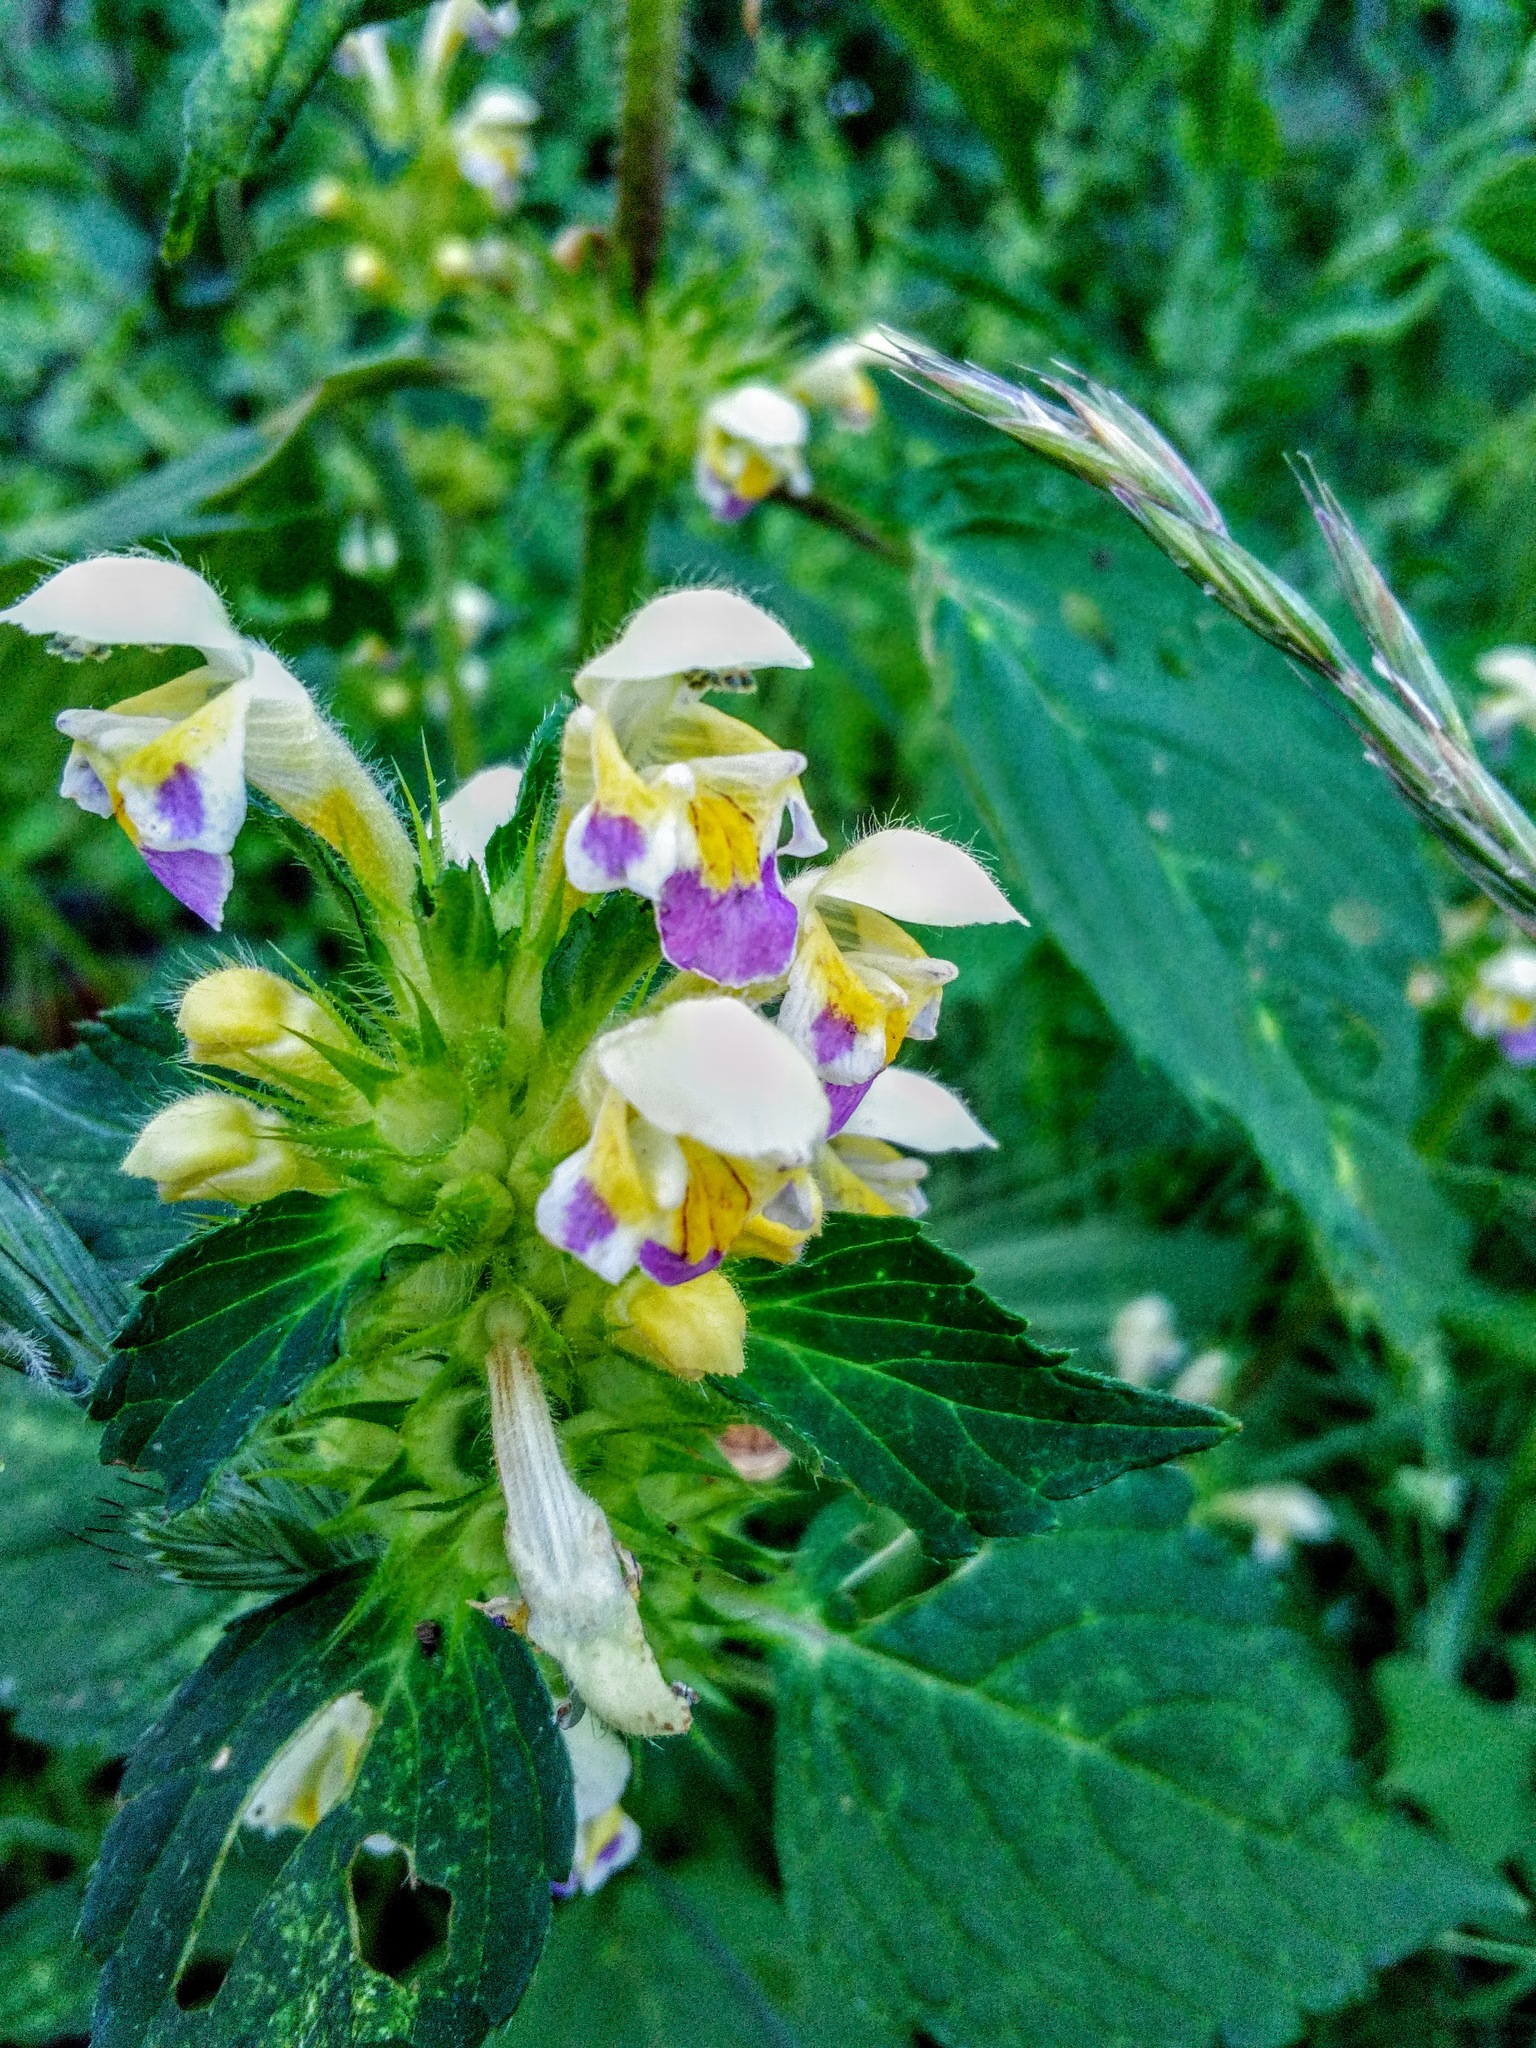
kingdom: Plantae
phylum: Tracheophyta
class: Magnoliopsida
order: Lamiales
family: Lamiaceae
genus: Galeopsis
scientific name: Galeopsis speciosa
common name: Large-flowered hemp-nettle
